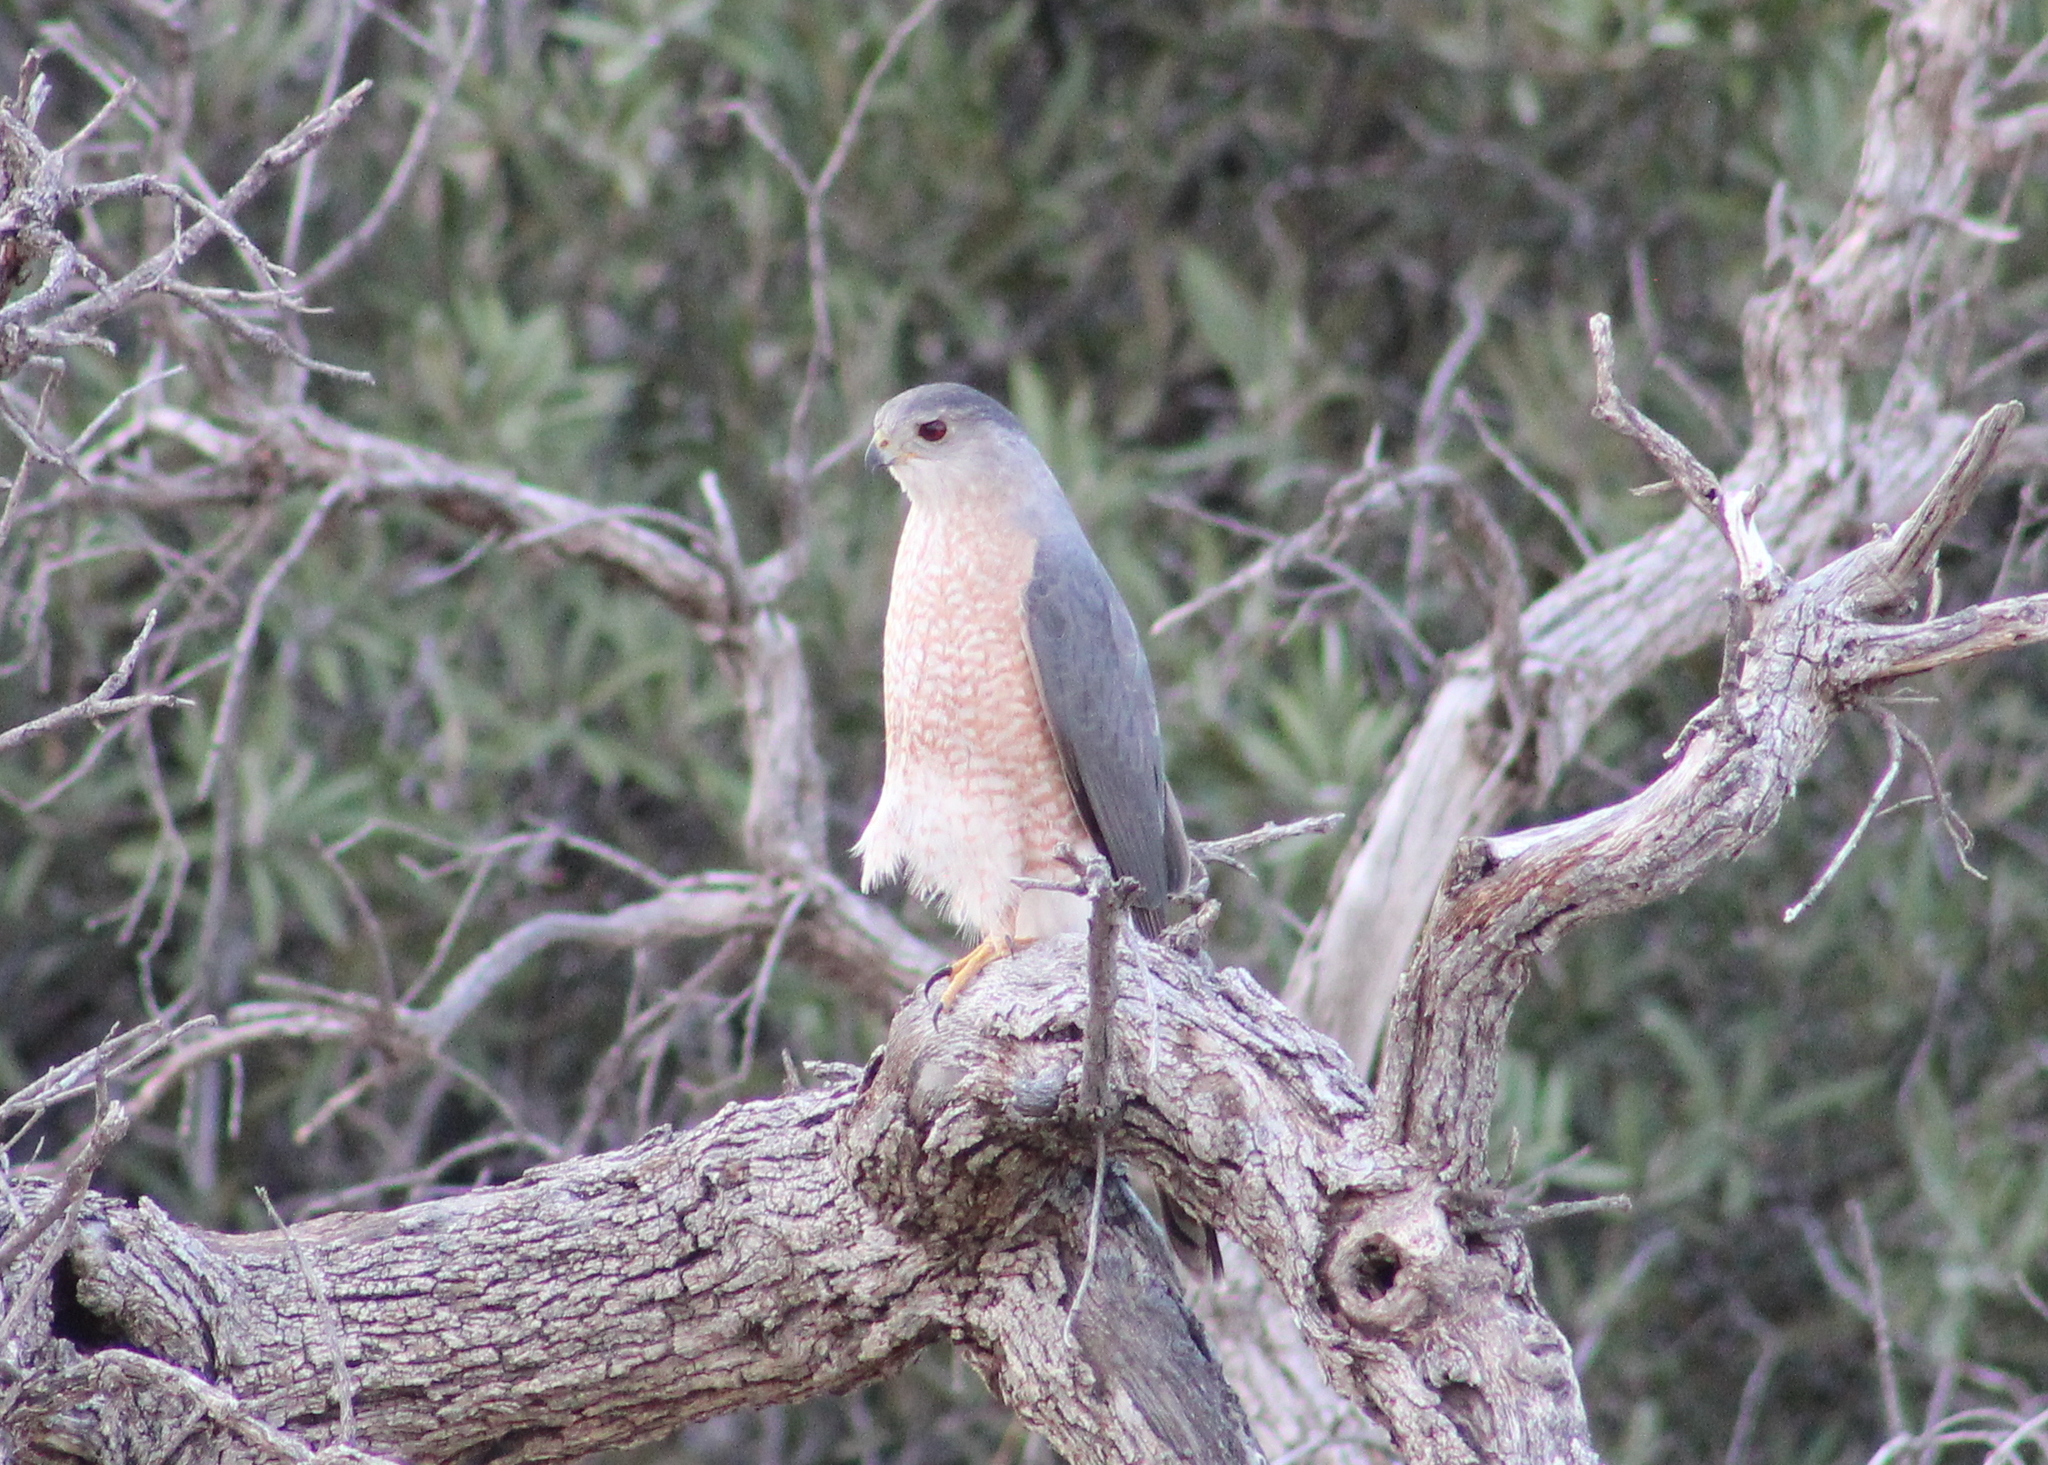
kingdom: Animalia
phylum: Chordata
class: Aves
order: Accipitriformes
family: Accipitridae
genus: Accipiter
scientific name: Accipiter cooperii
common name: Cooper's hawk
